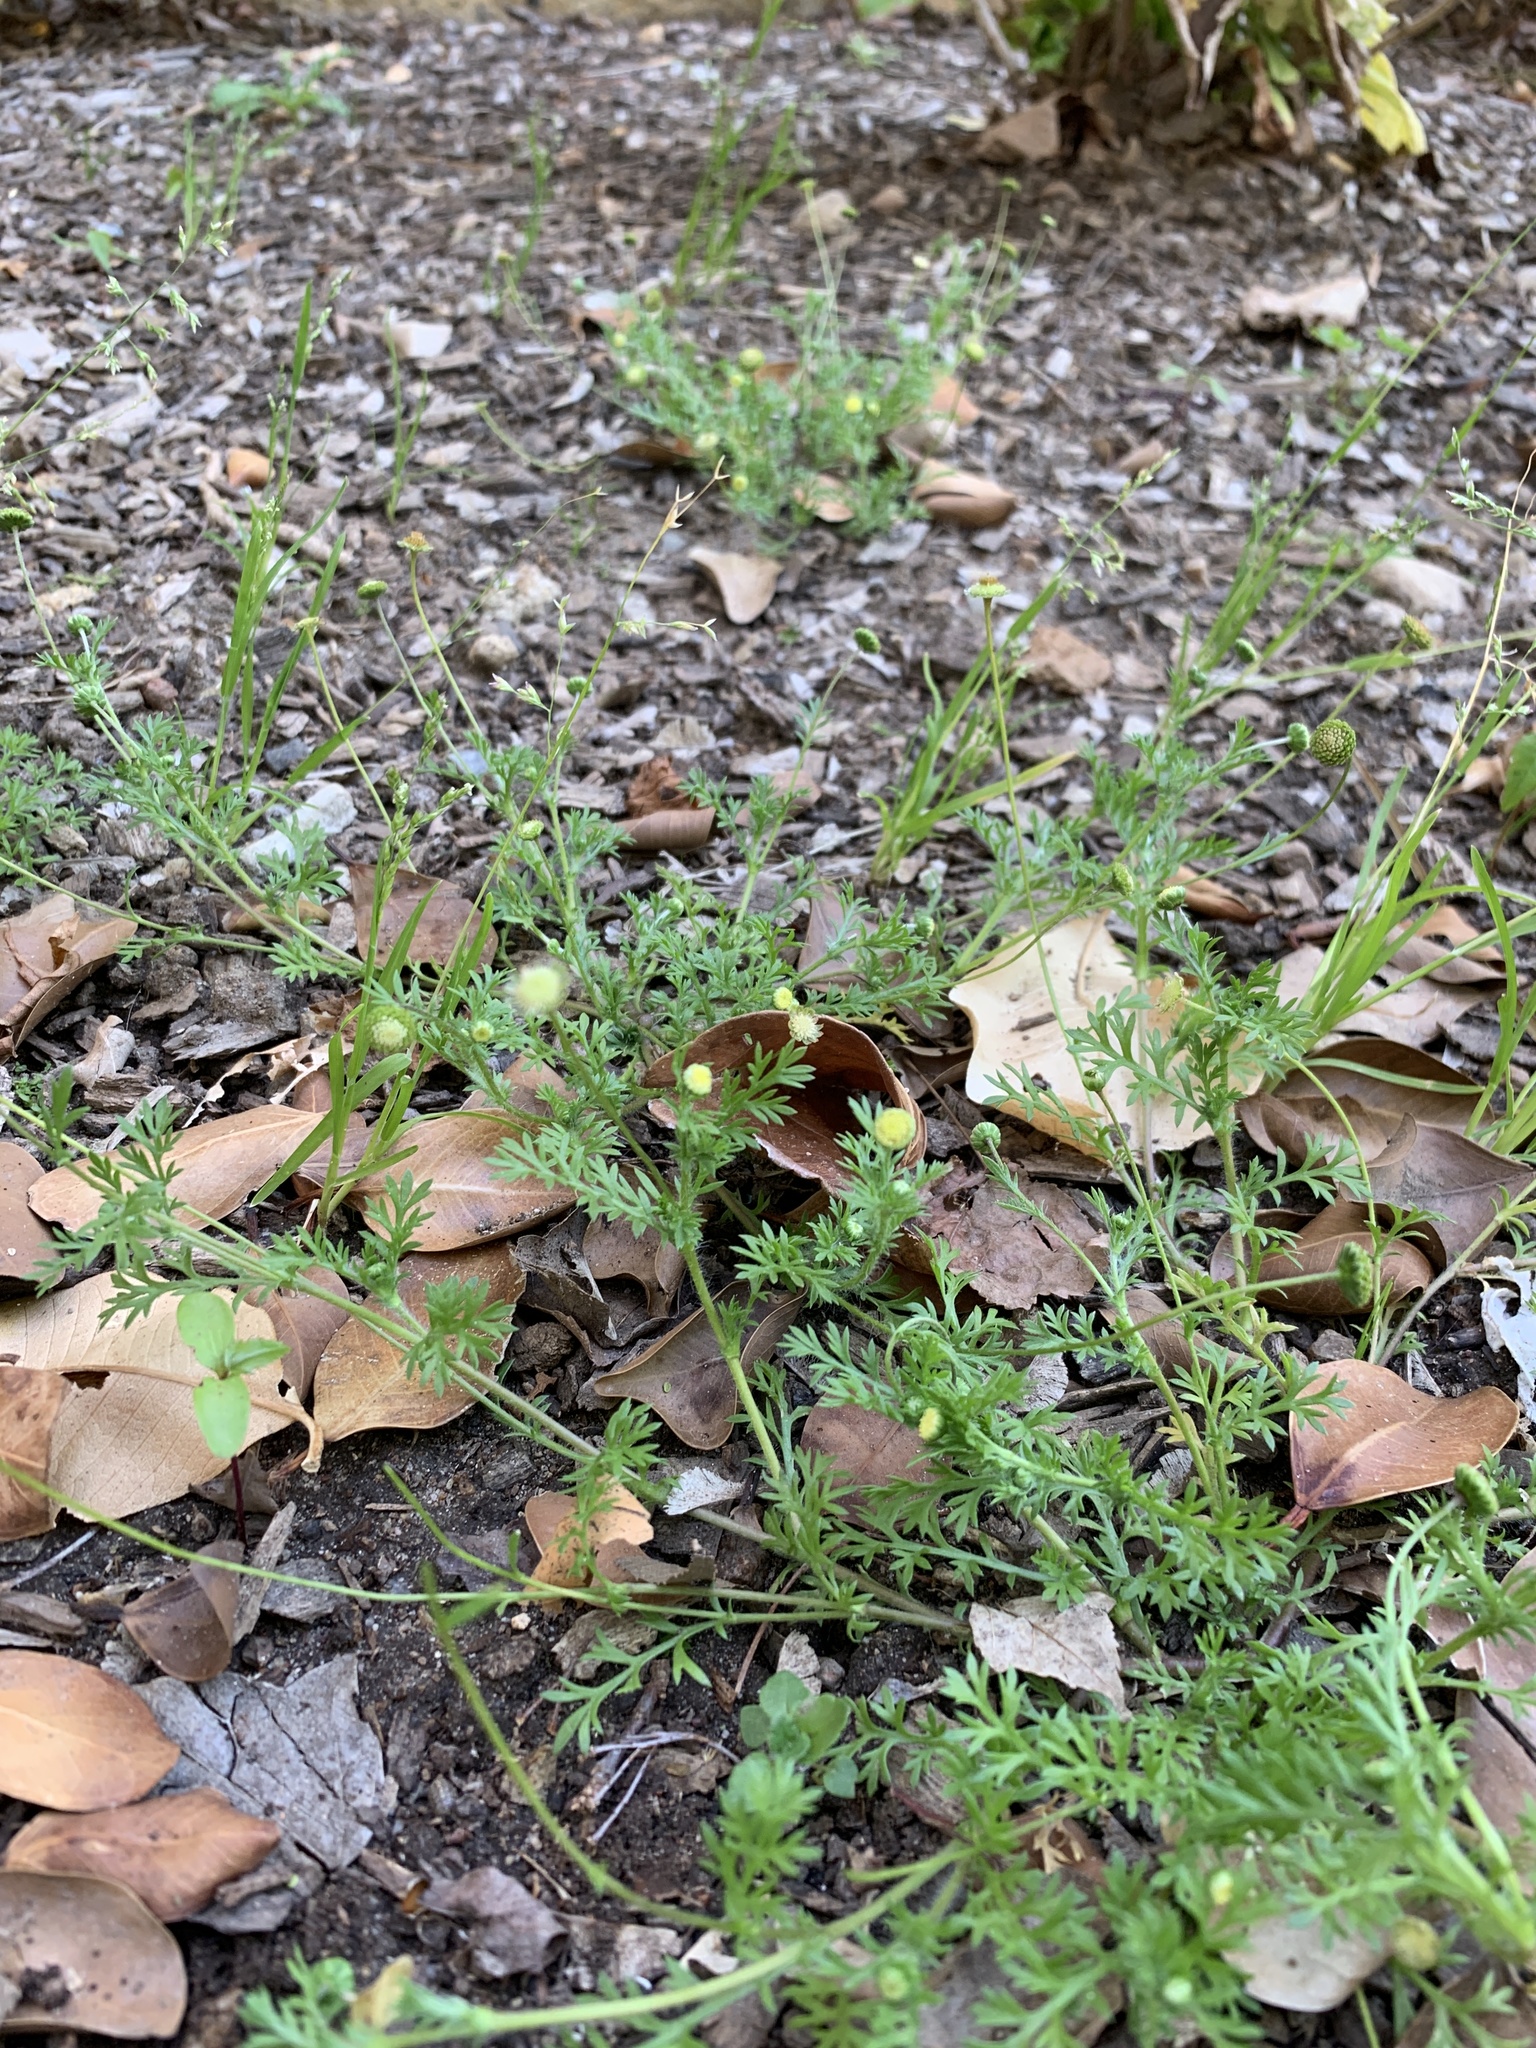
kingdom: Plantae
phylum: Tracheophyta
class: Magnoliopsida
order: Asterales
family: Asteraceae
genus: Cotula
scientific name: Cotula australis
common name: Australian waterbuttons
